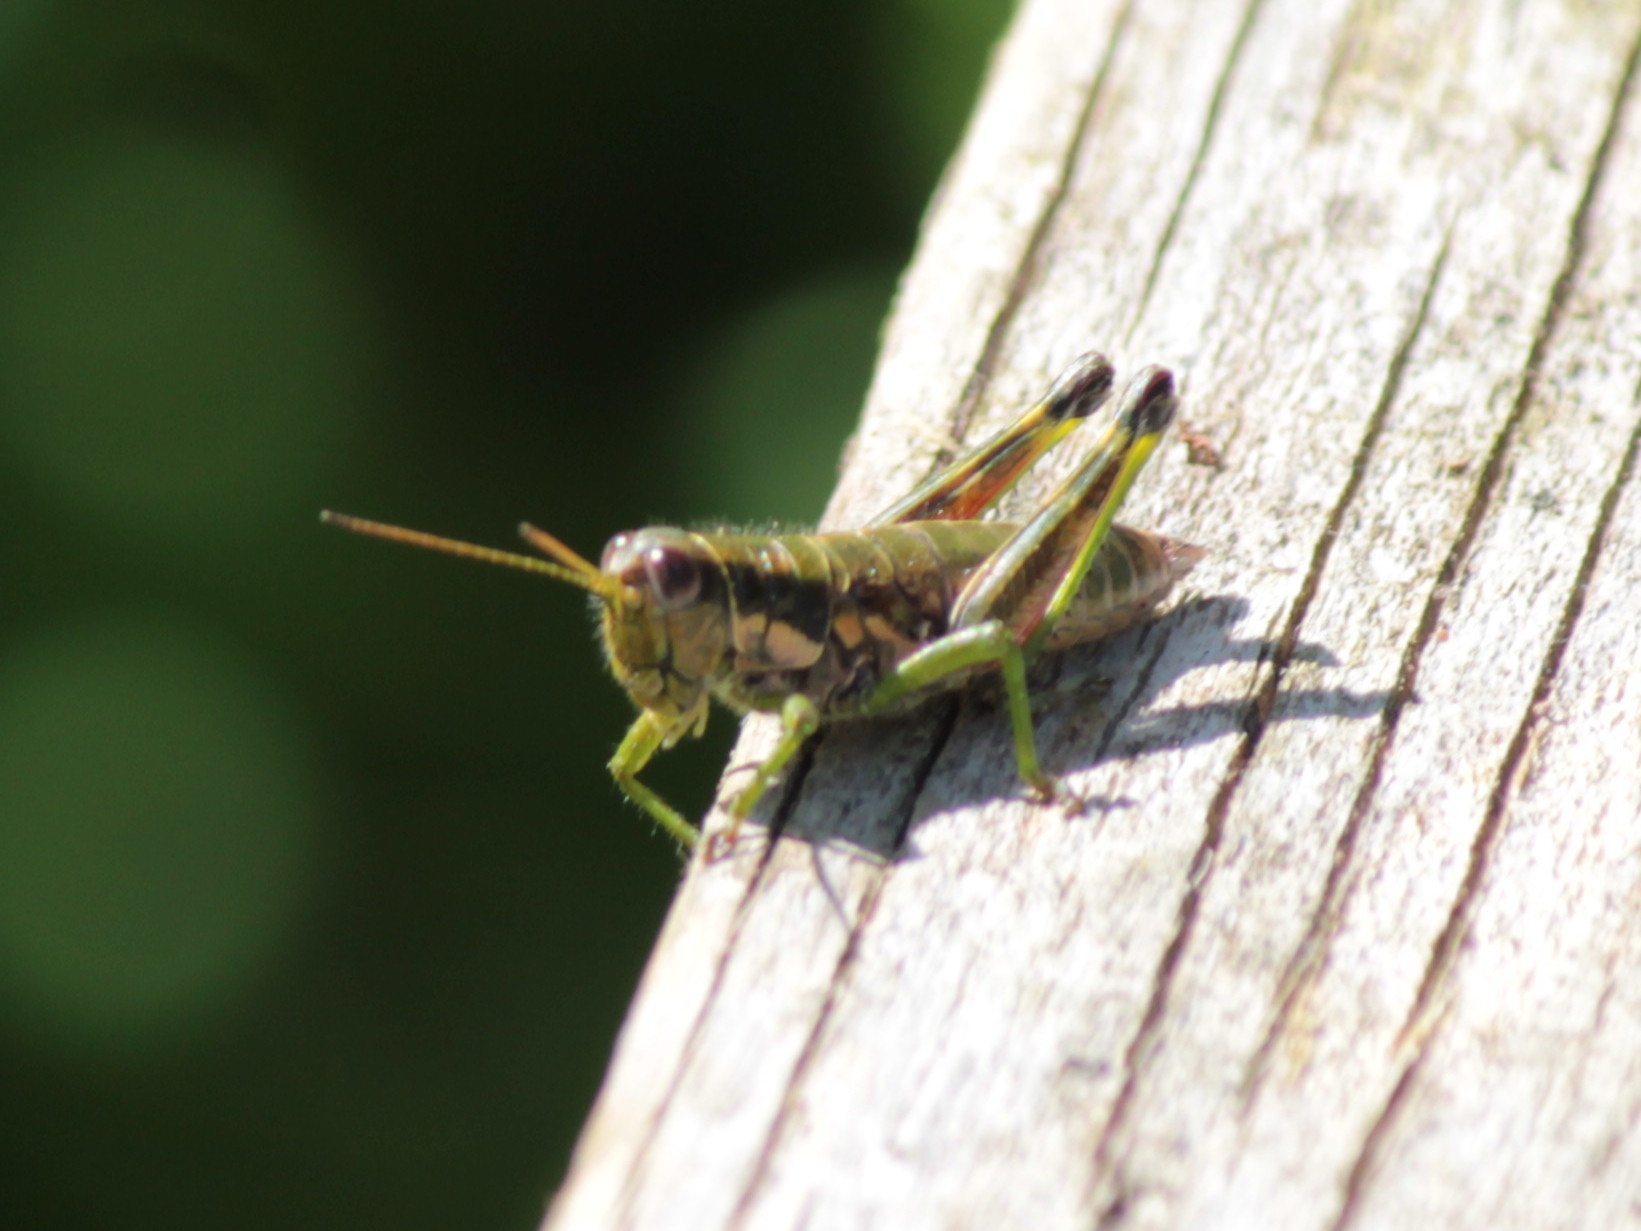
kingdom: Animalia
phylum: Arthropoda
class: Insecta
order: Orthoptera
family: Acrididae
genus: Booneacris
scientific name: Booneacris glacialis
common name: Wingless mountain grasshopper
